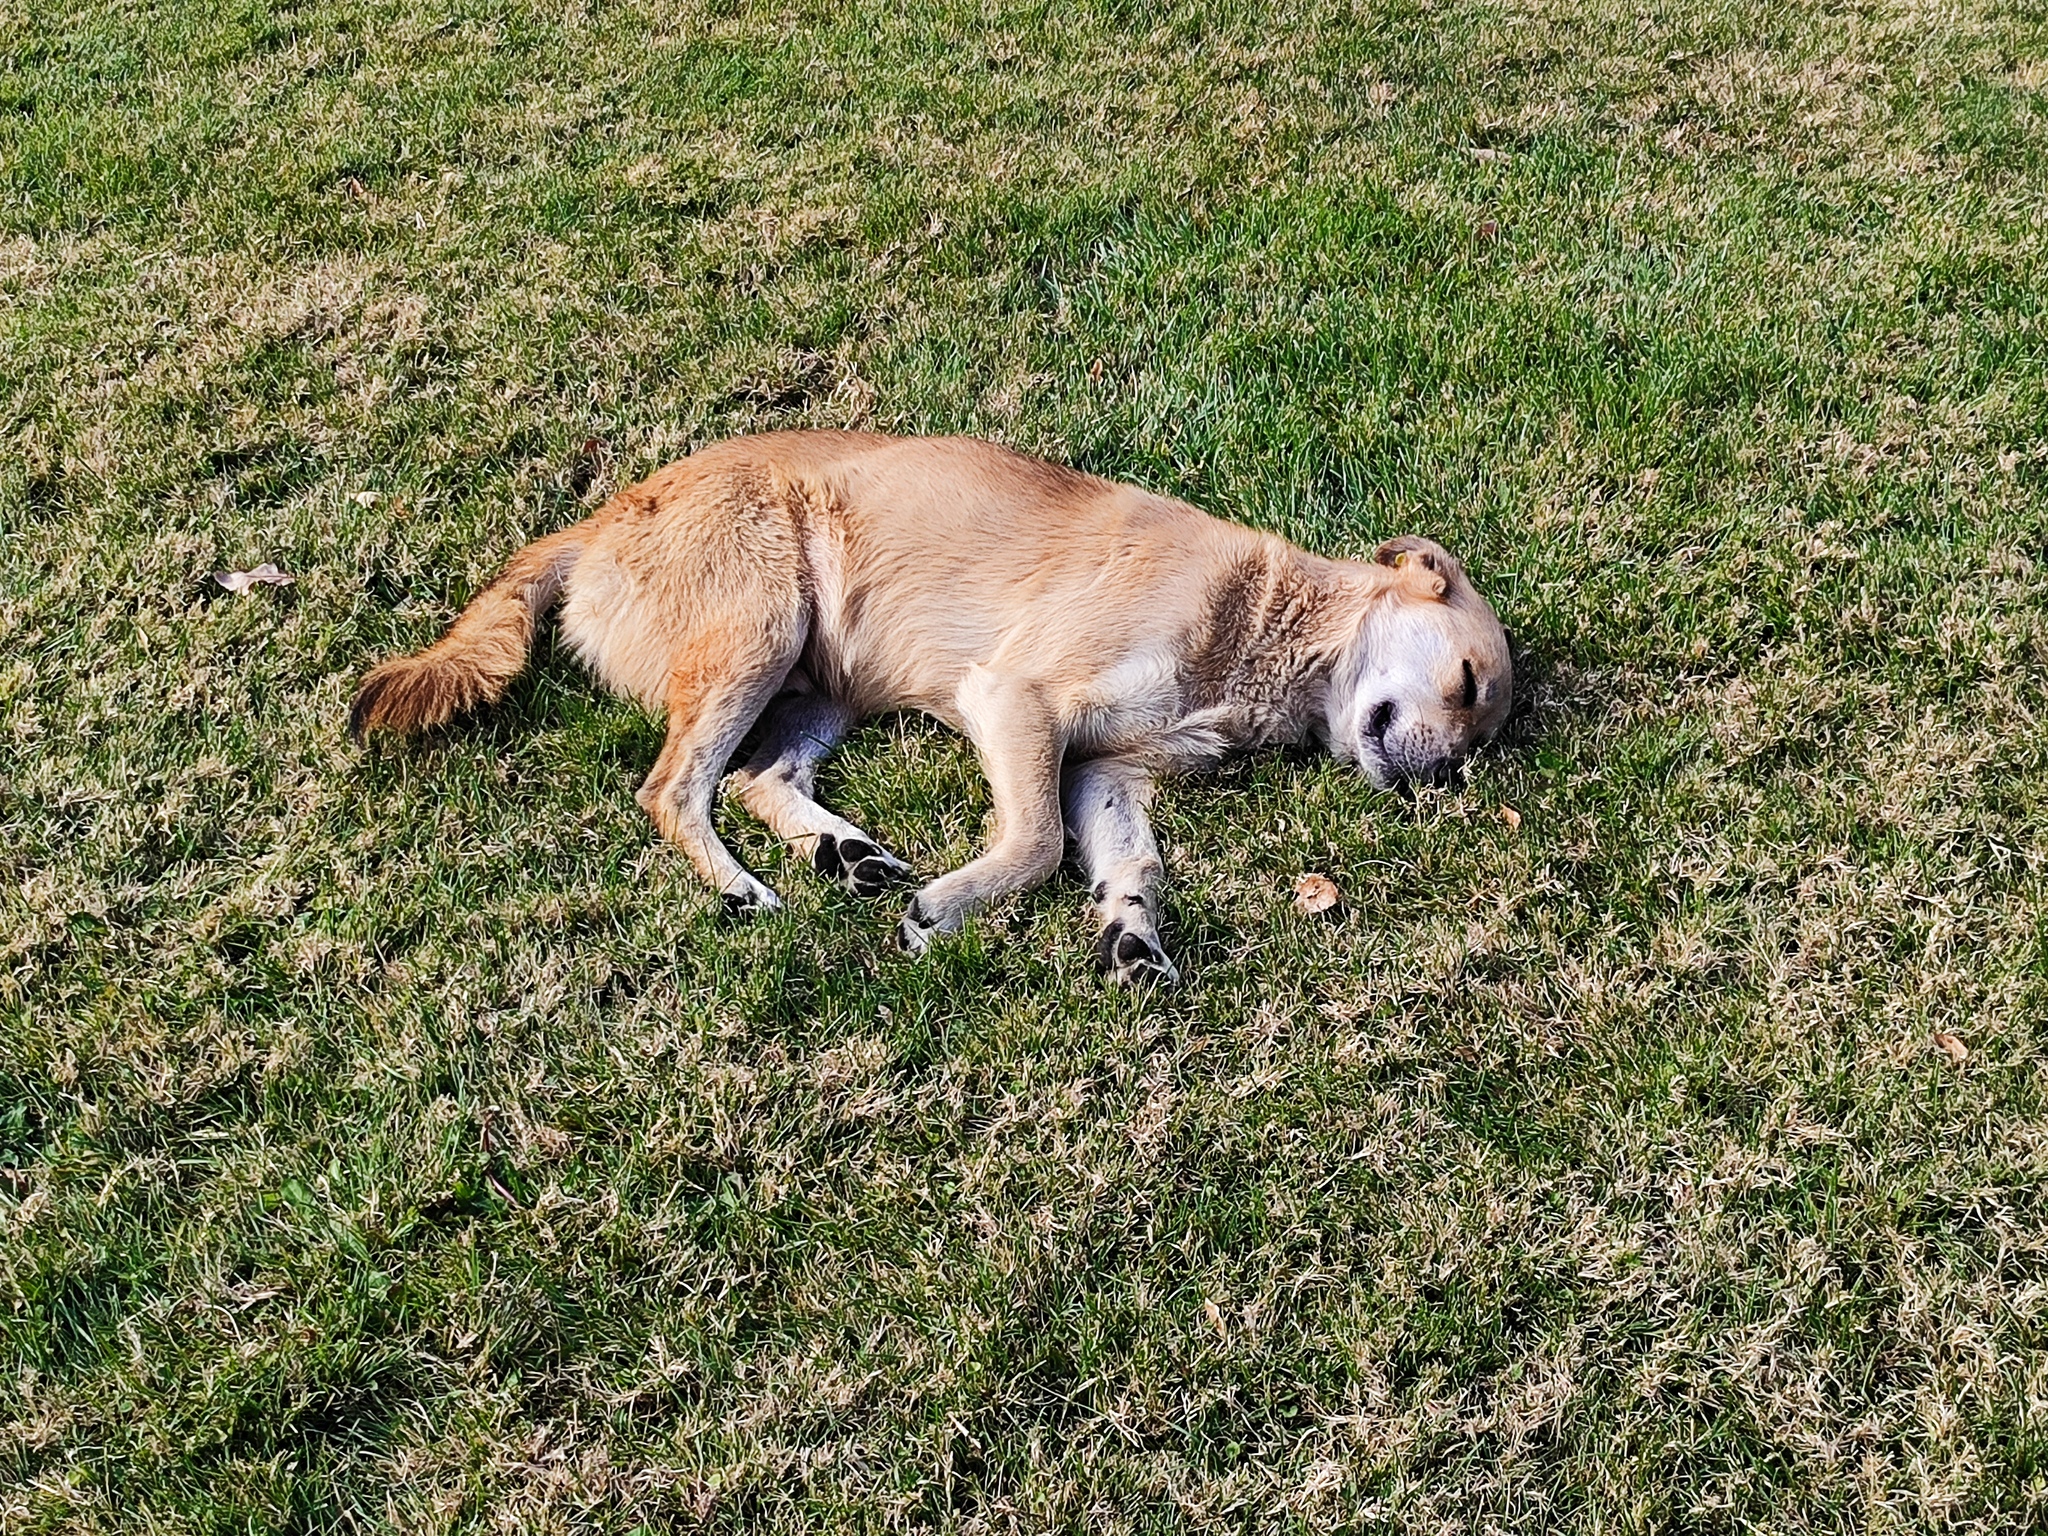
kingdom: Animalia
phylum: Chordata
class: Mammalia
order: Carnivora
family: Canidae
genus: Canis
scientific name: Canis lupus
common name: Gray wolf
